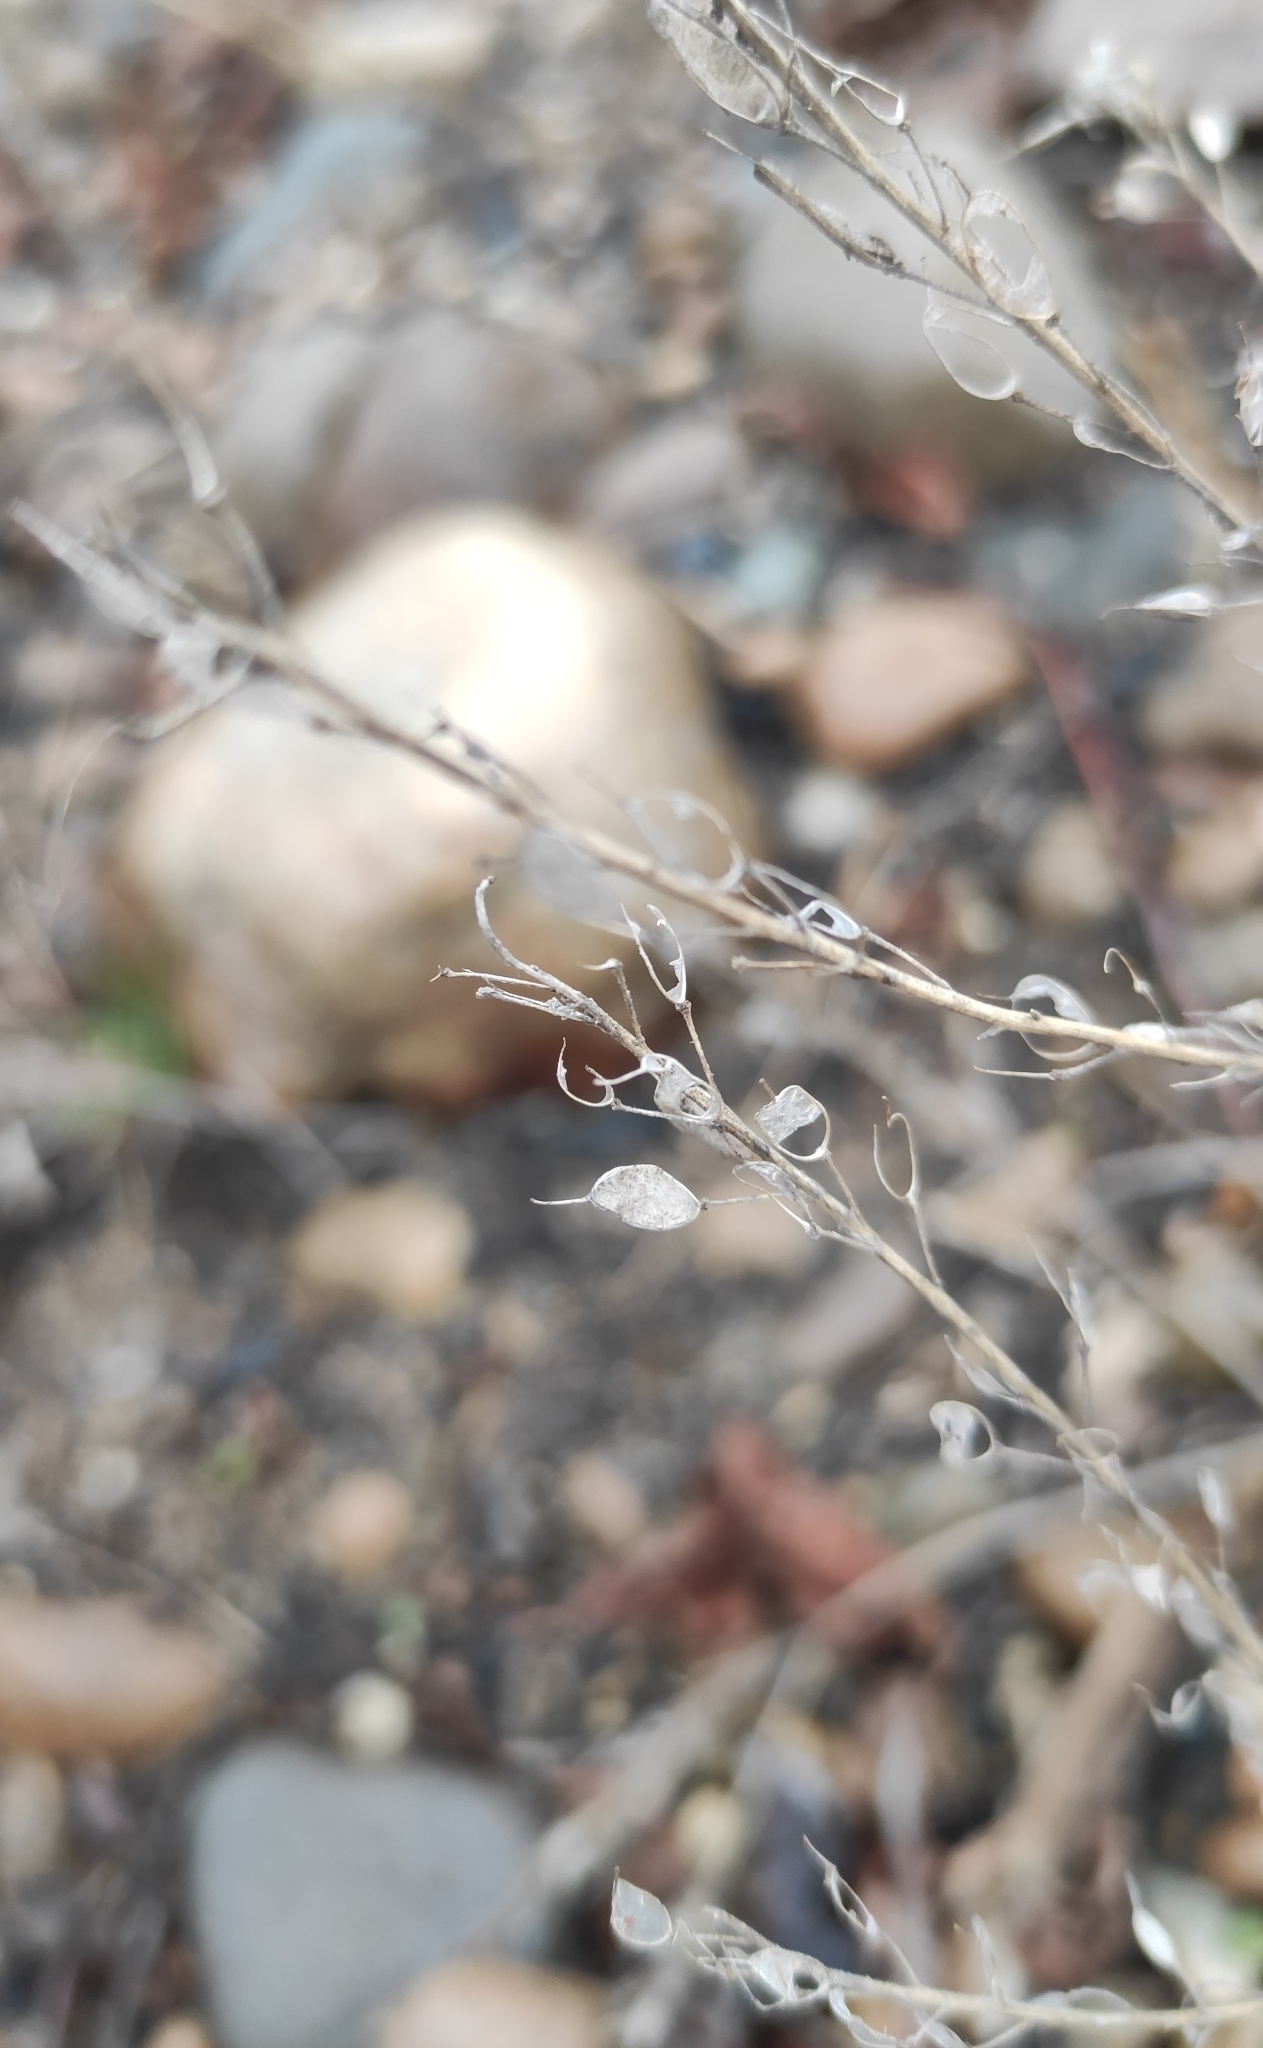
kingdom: Plantae
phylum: Tracheophyta
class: Magnoliopsida
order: Brassicales
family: Brassicaceae
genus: Berteroa
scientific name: Berteroa incana
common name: Hoary alison
